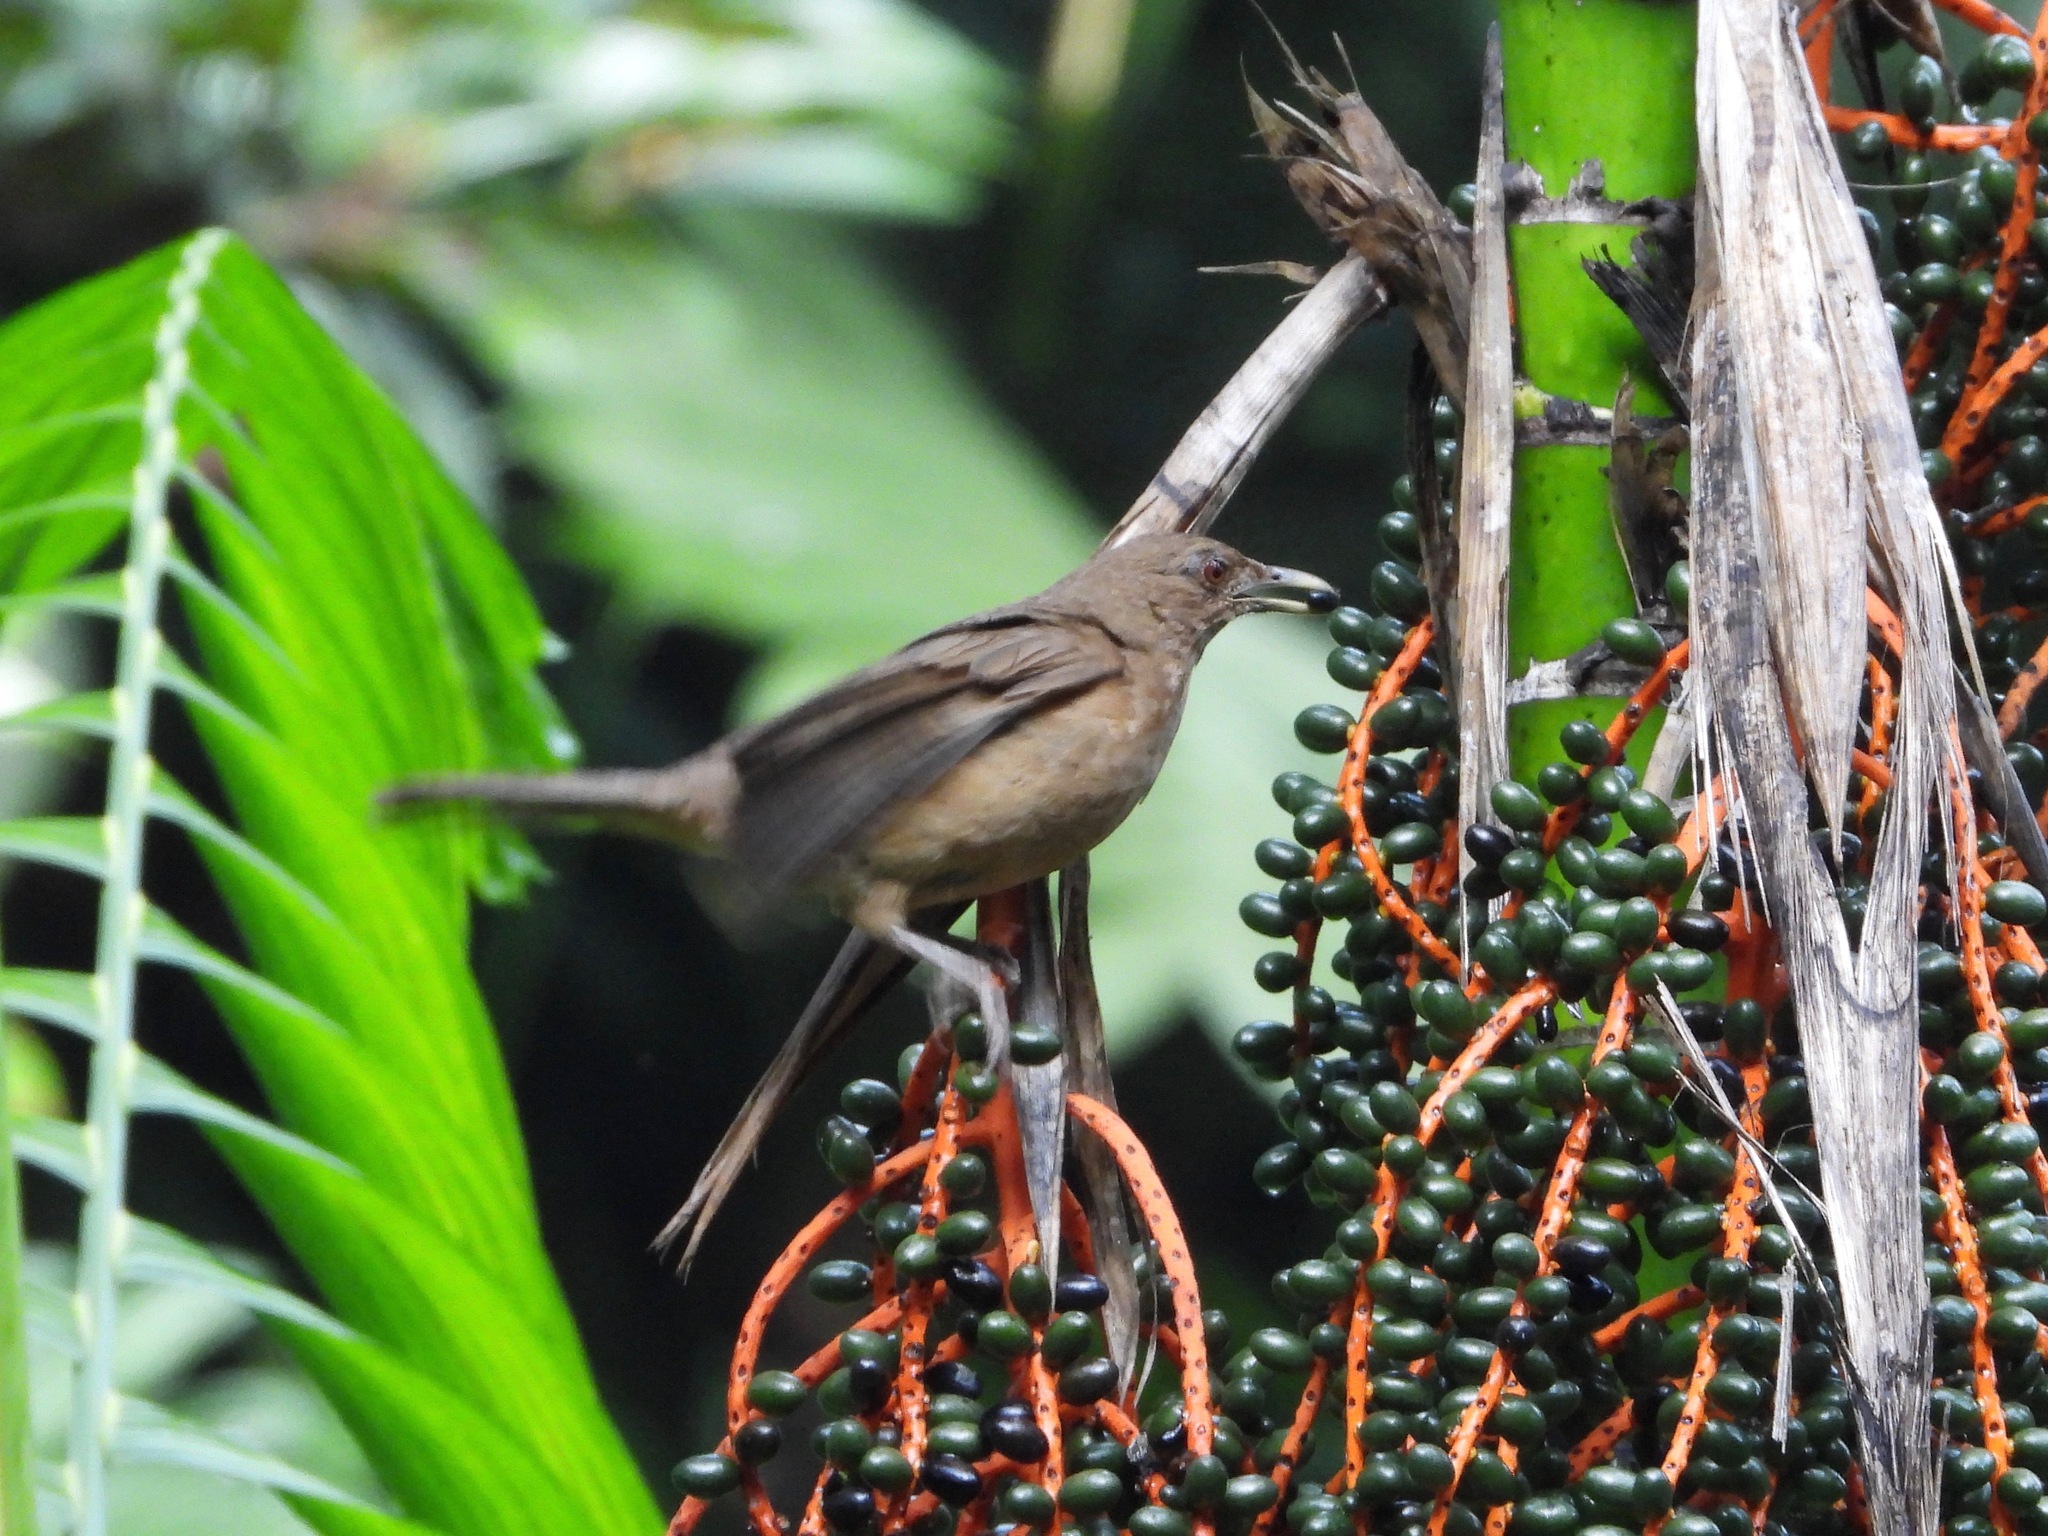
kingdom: Animalia
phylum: Chordata
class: Aves
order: Passeriformes
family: Turdidae
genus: Turdus
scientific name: Turdus grayi
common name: Clay-colored thrush
